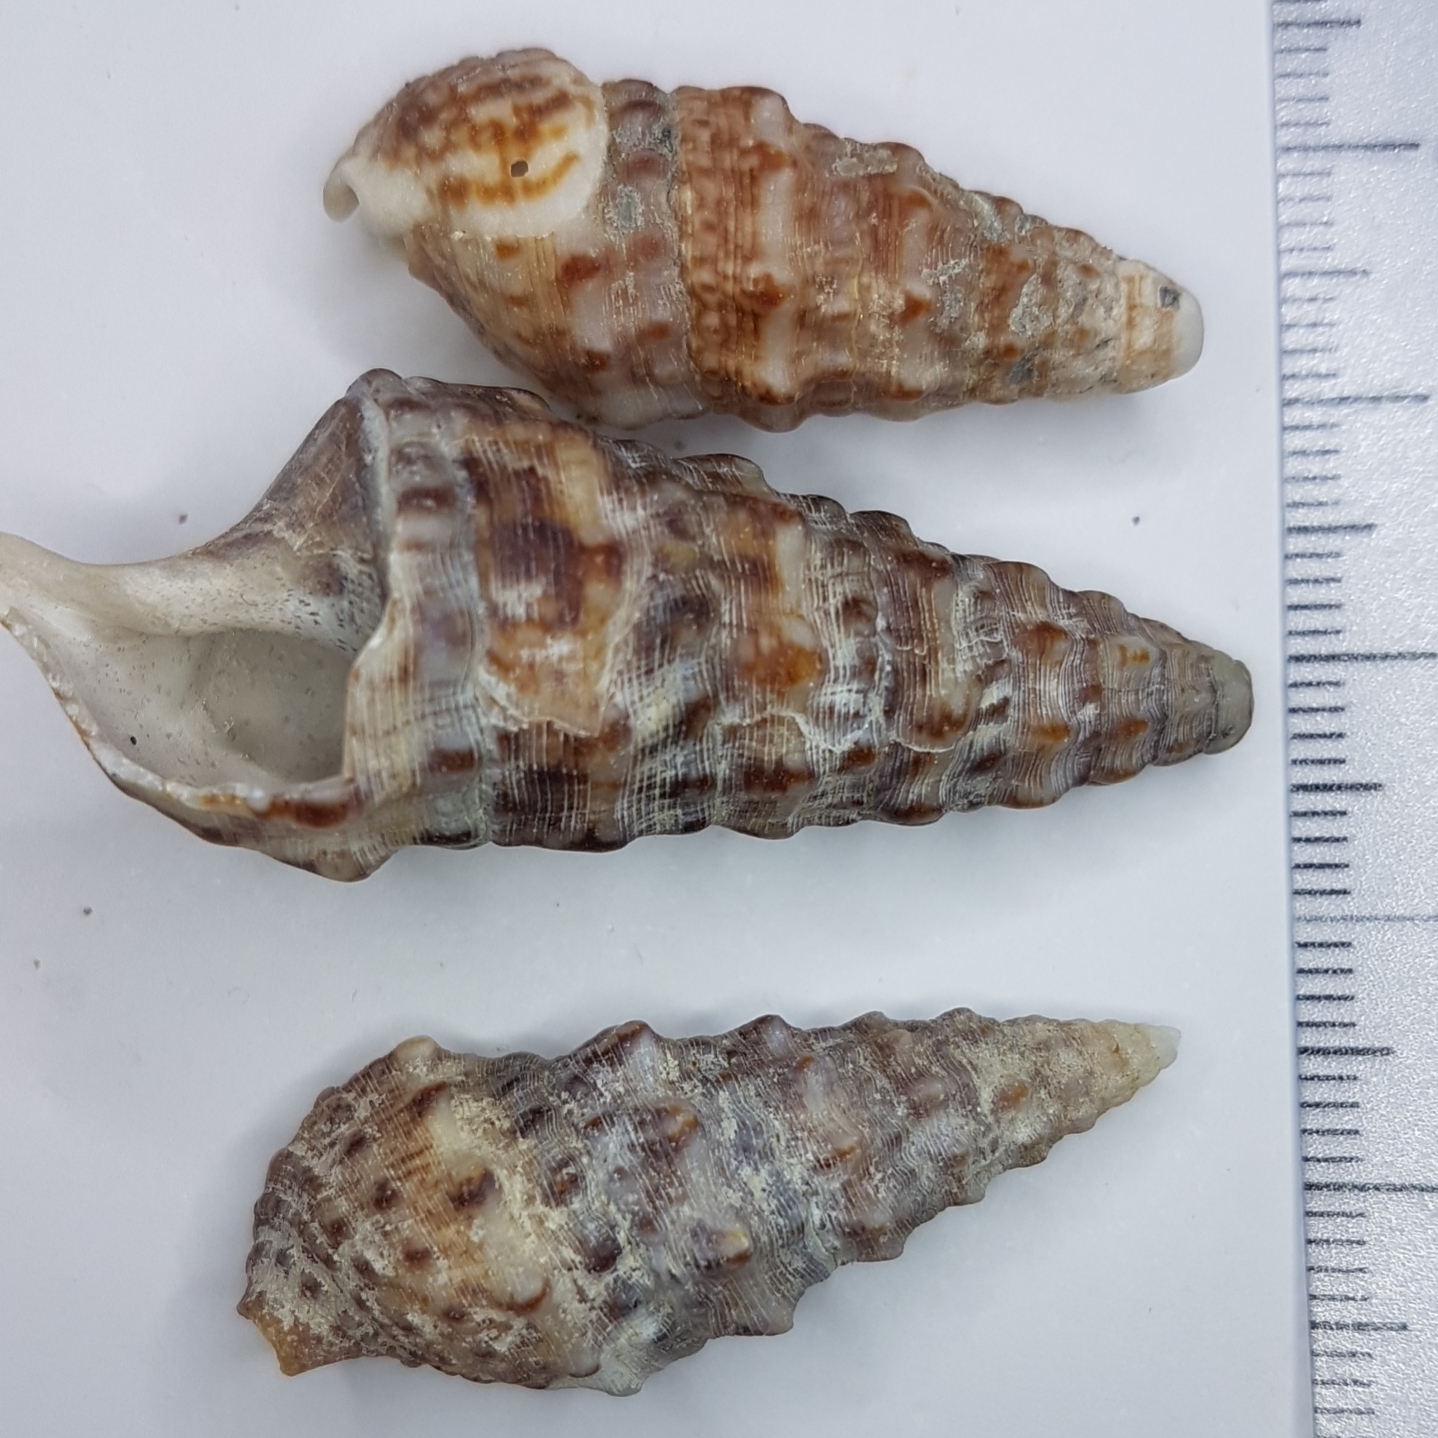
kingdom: Animalia
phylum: Mollusca
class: Gastropoda
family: Cerithiidae
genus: Cerithium
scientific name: Cerithium vulgatum
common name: European cerith
